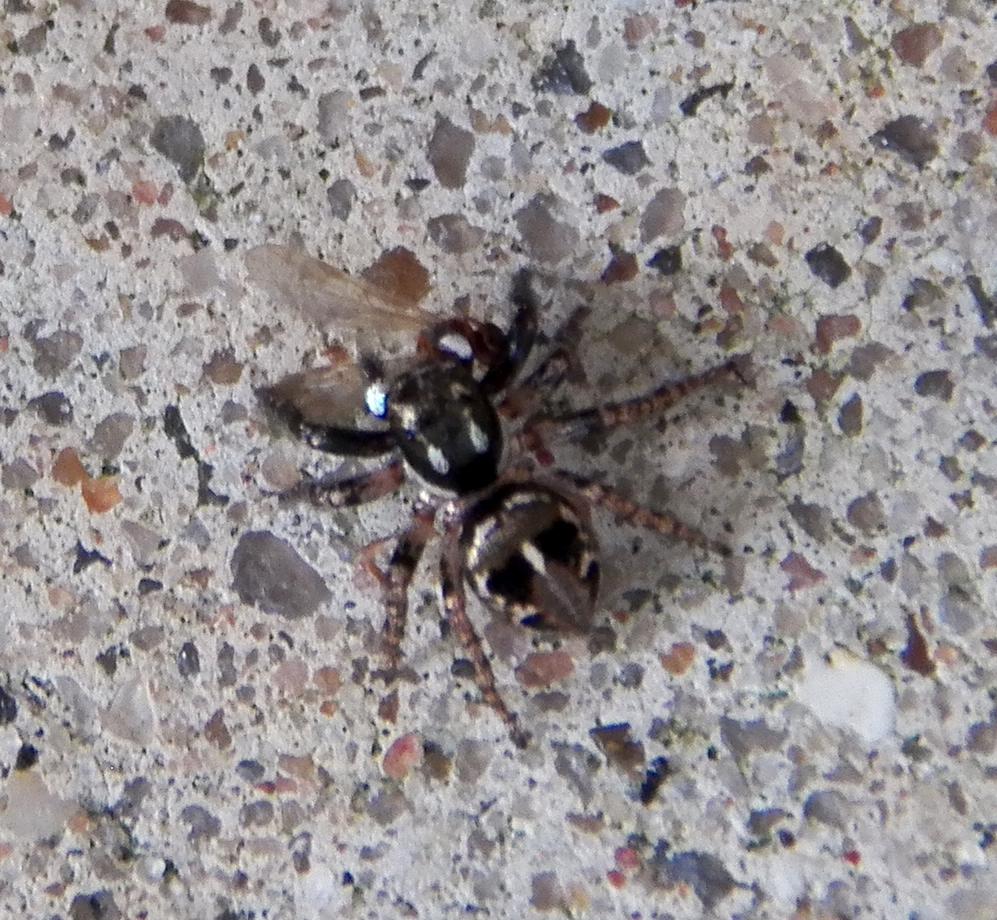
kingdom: Animalia
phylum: Arthropoda
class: Arachnida
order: Araneae
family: Salticidae
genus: Anasaitis
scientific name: Anasaitis canosa
